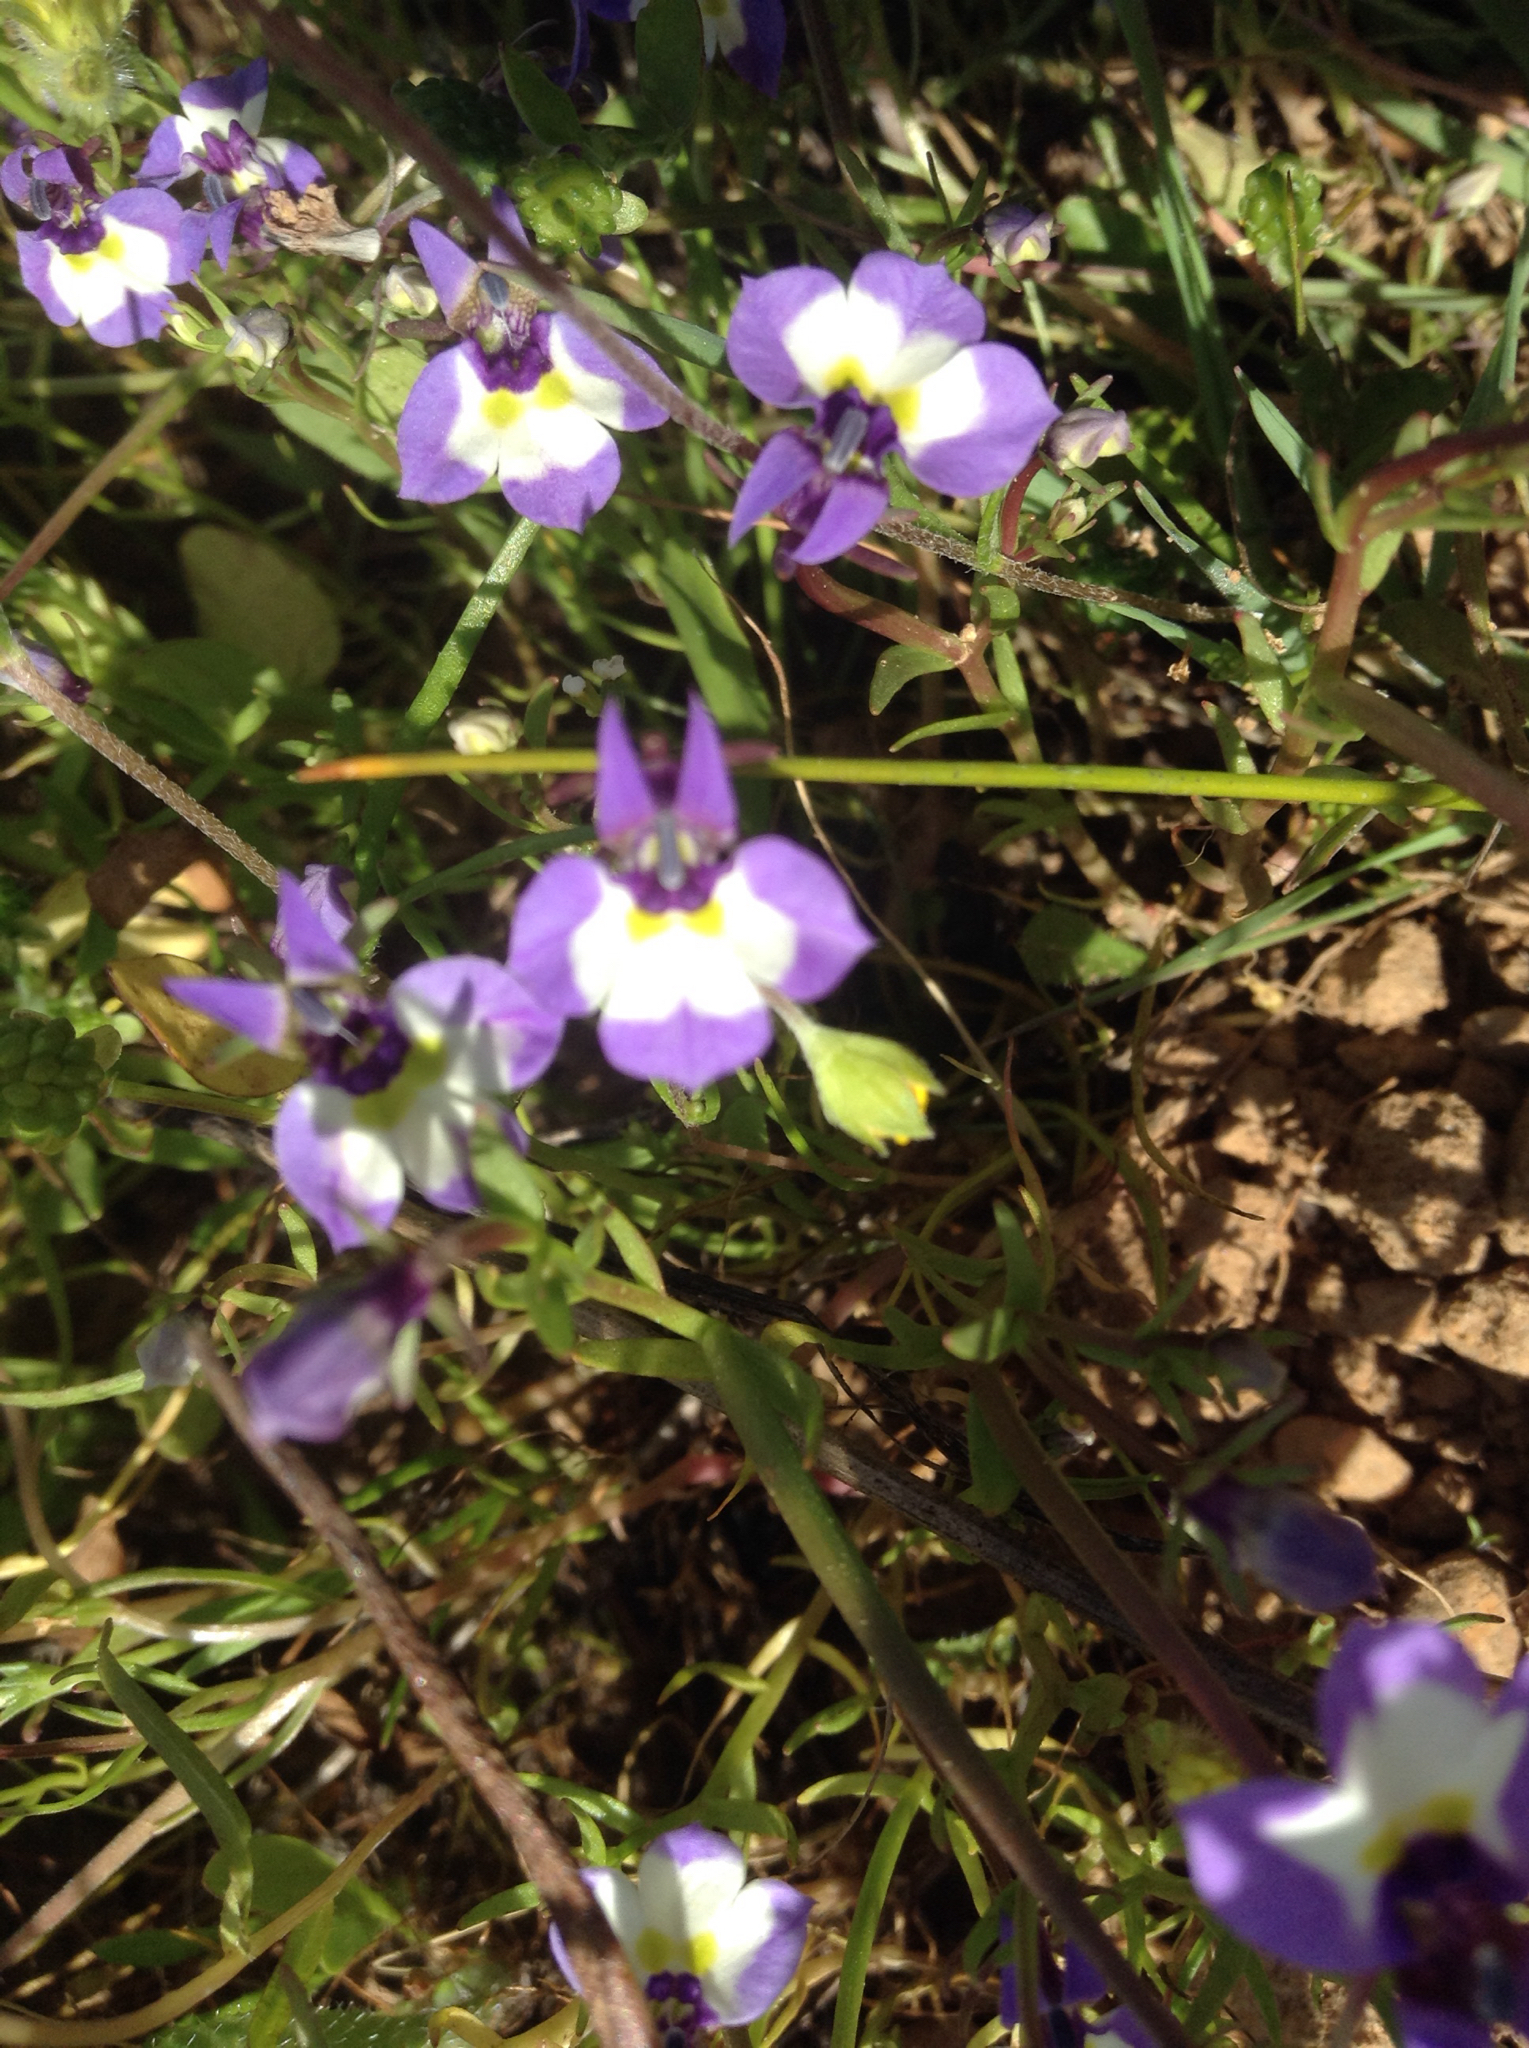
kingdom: Plantae
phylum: Tracheophyta
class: Magnoliopsida
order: Asterales
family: Campanulaceae
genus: Downingia
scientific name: Downingia bicornuta
